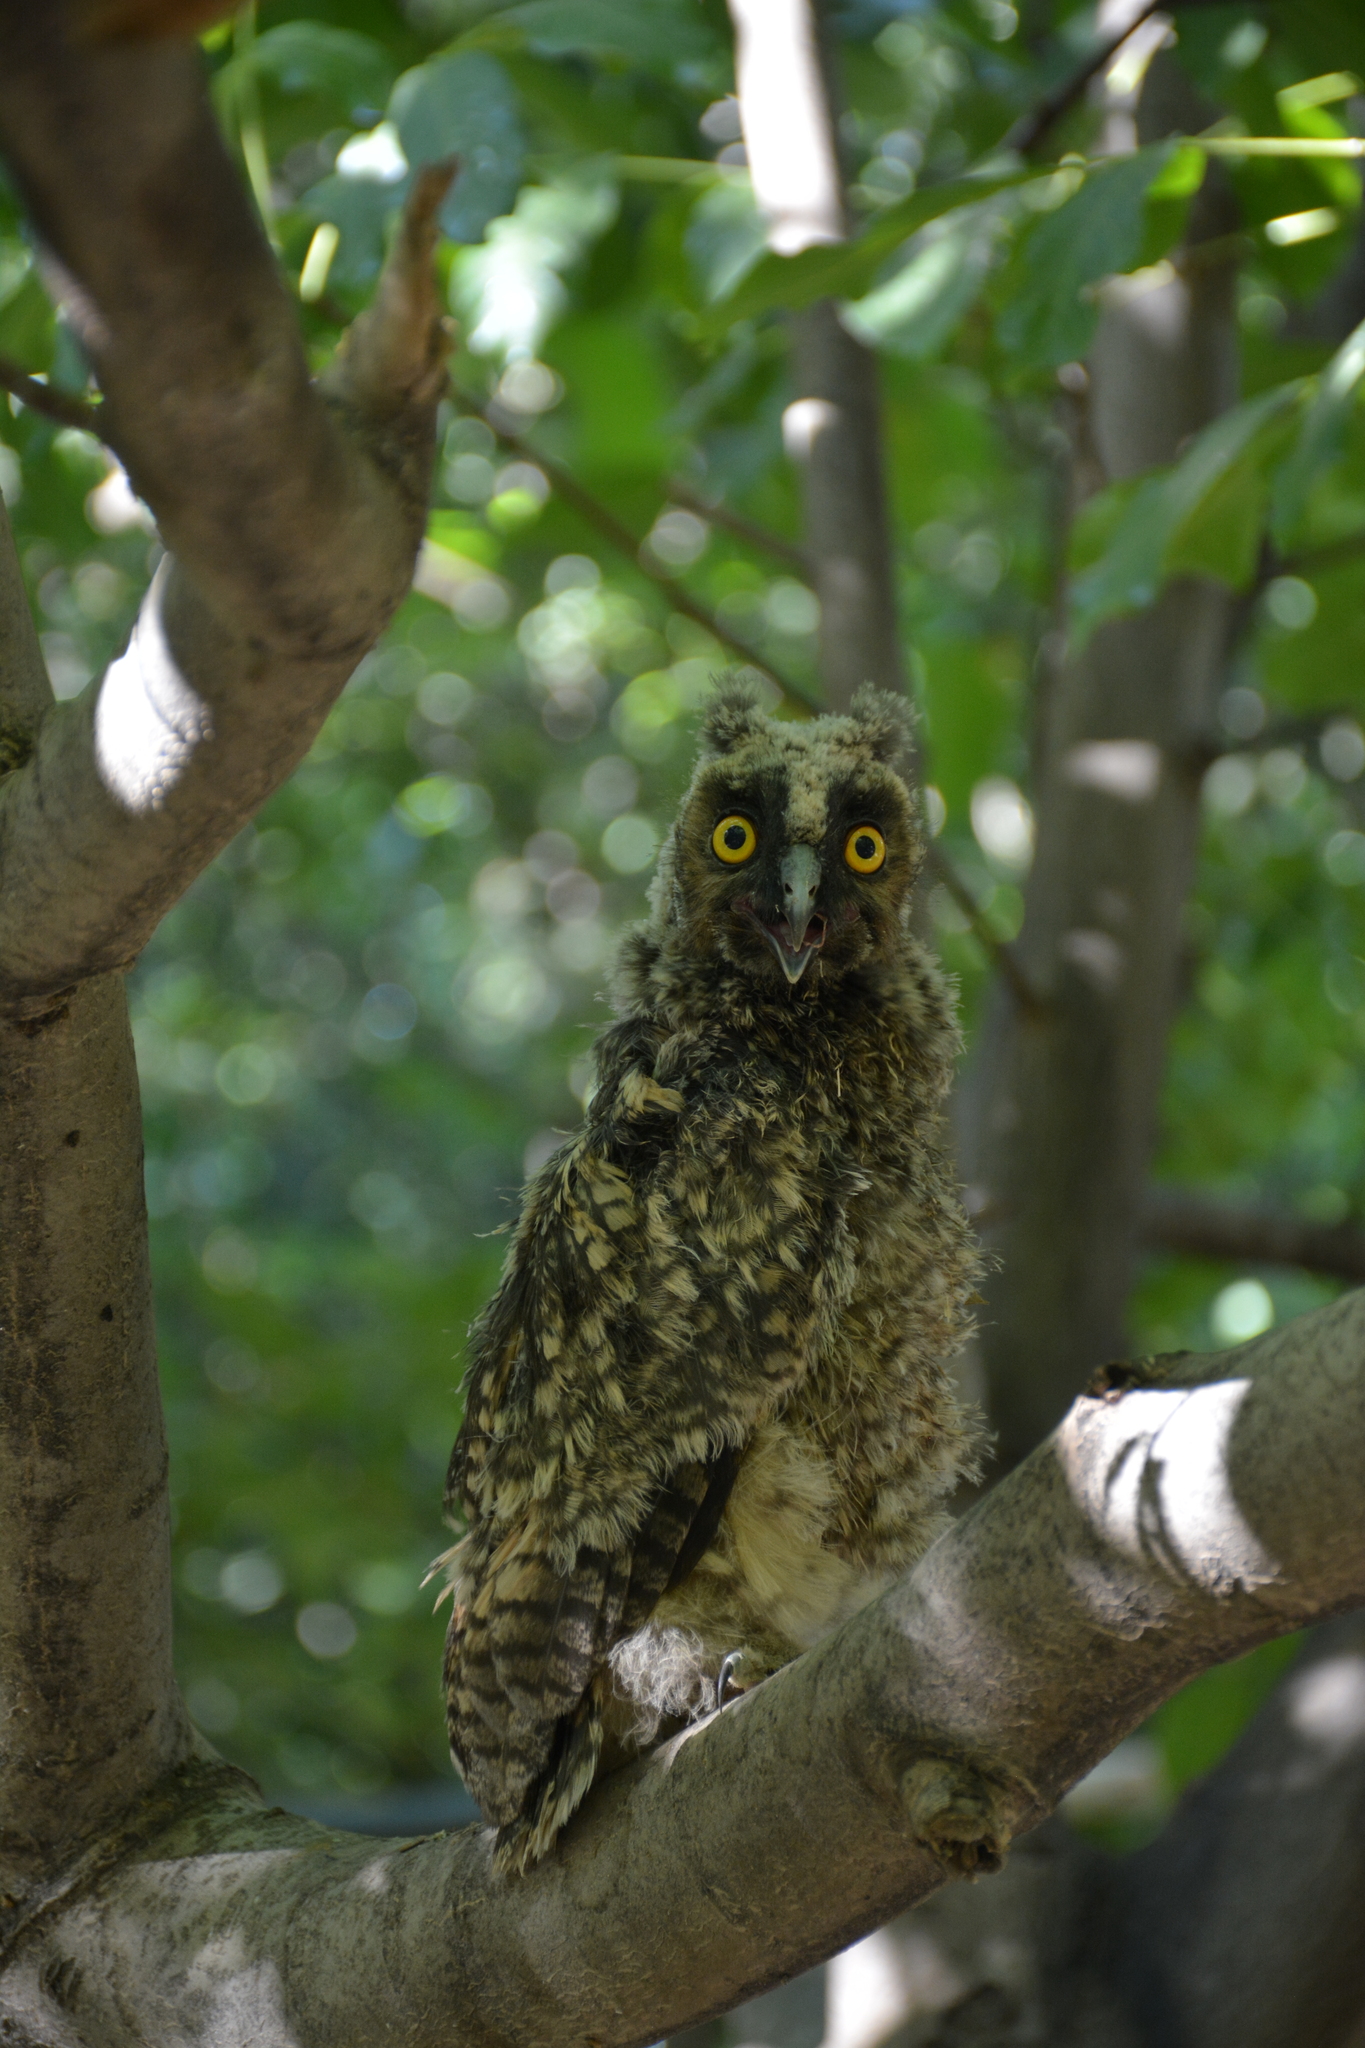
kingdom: Animalia
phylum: Chordata
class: Aves
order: Strigiformes
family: Strigidae
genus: Asio
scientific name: Asio otus
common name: Long-eared owl
